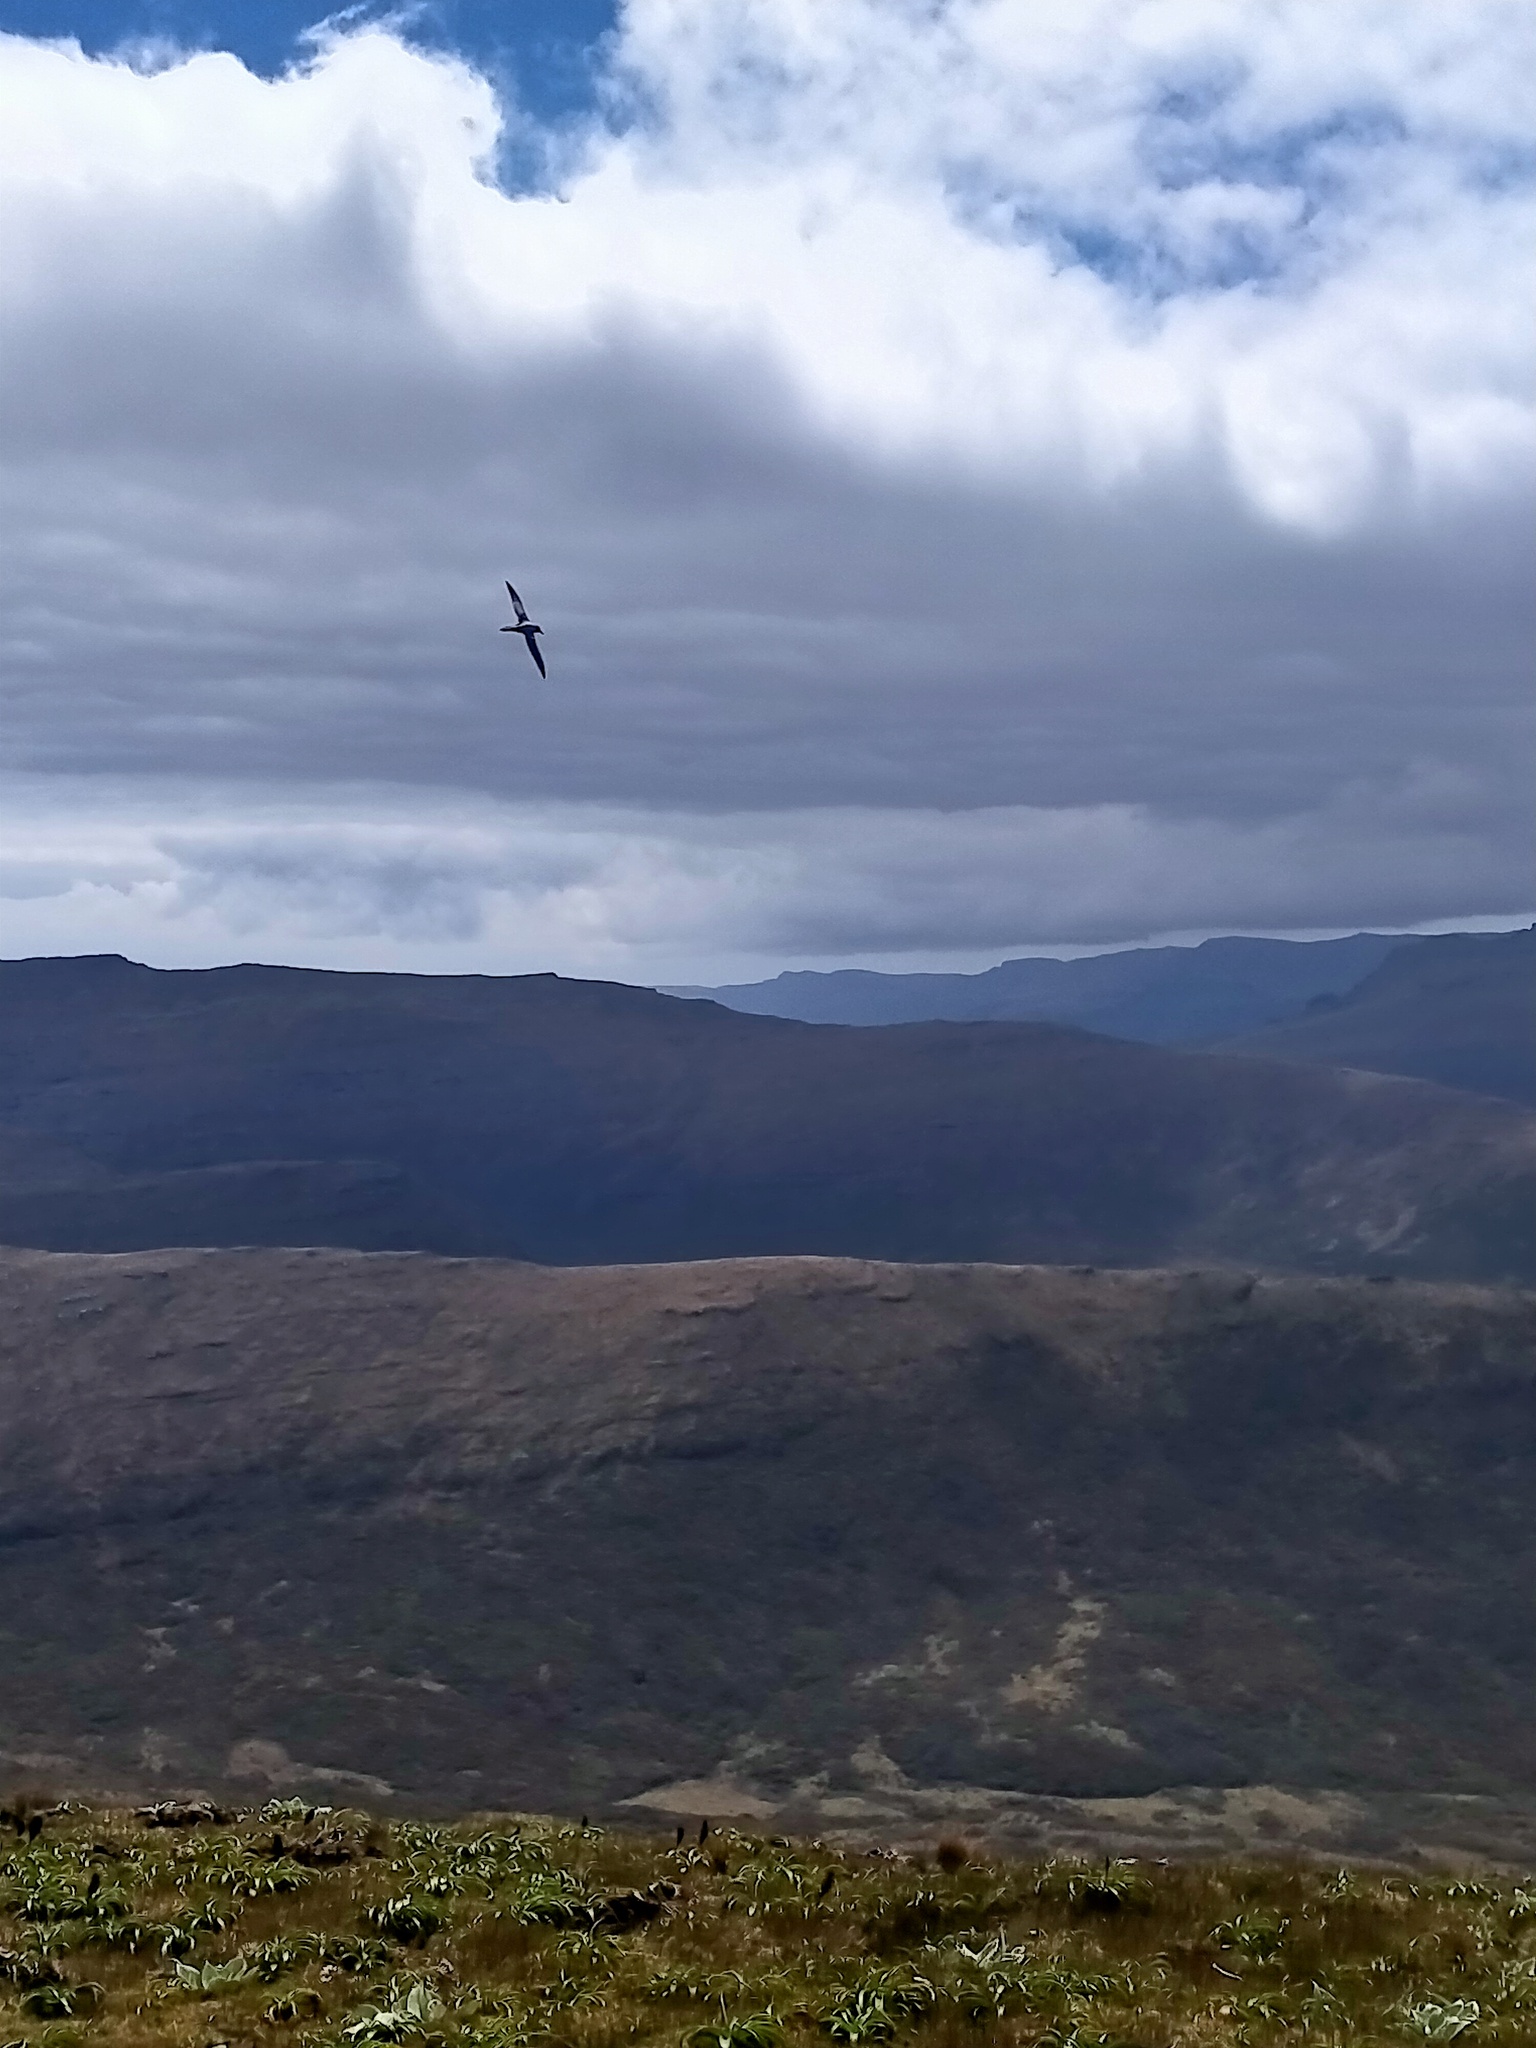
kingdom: Animalia
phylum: Chordata
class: Aves
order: Procellariiformes
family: Diomedeidae
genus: Phoebetria
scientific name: Phoebetria palpebrata
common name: Light-mantled albatross
